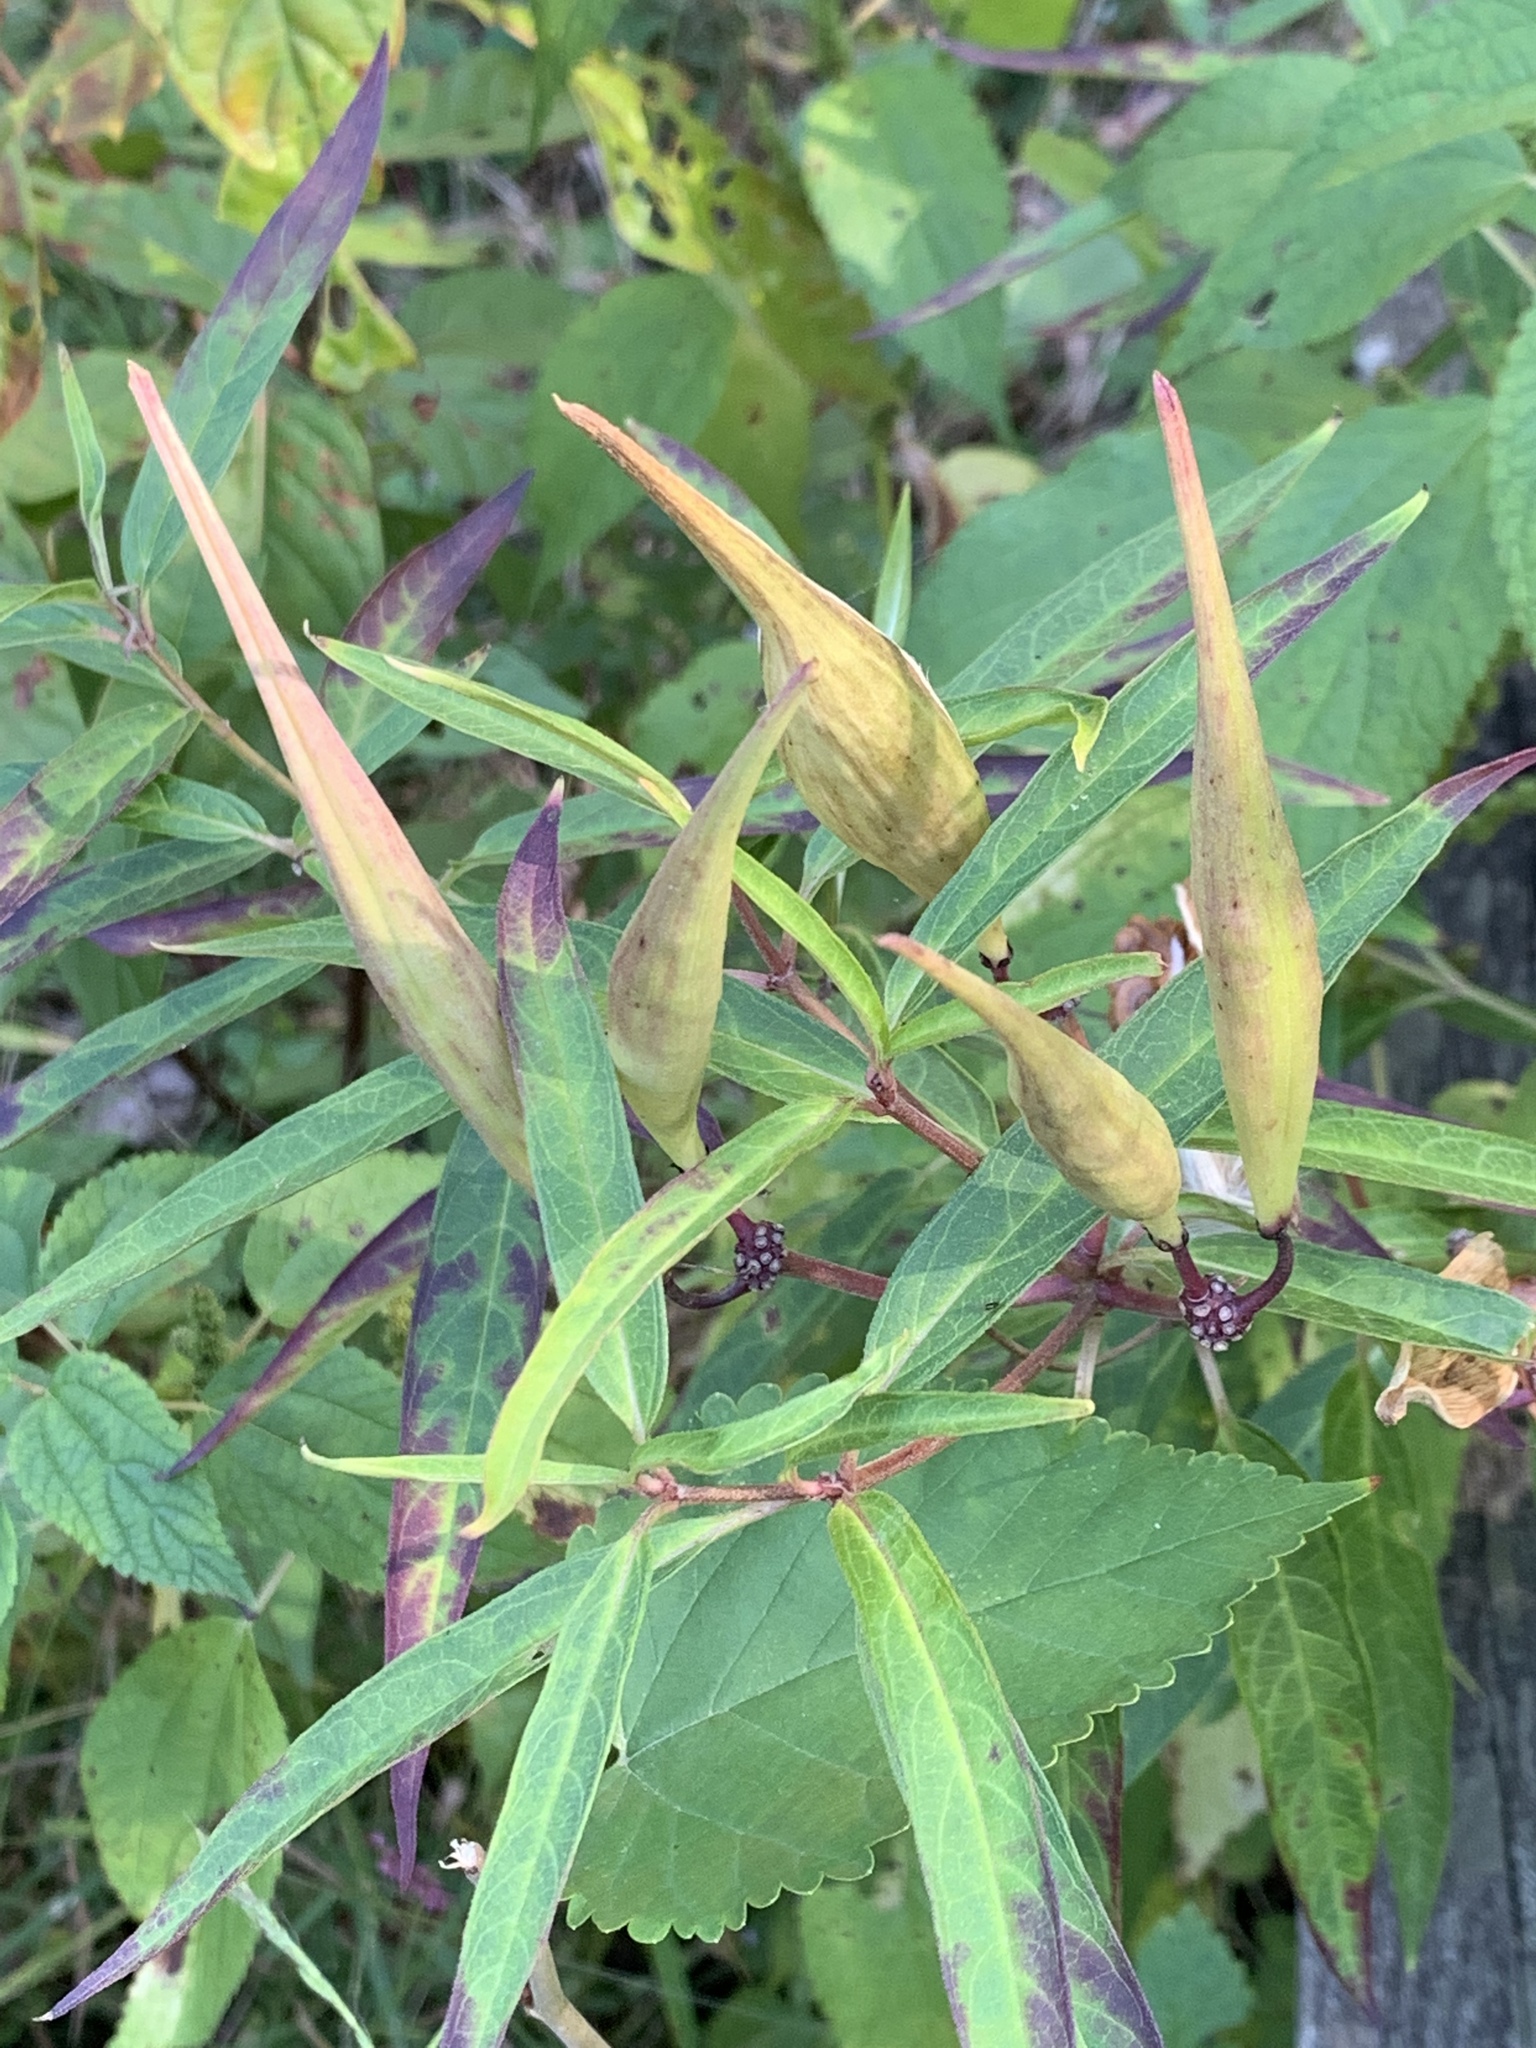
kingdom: Plantae
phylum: Tracheophyta
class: Magnoliopsida
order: Gentianales
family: Apocynaceae
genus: Asclepias
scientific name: Asclepias incarnata
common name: Swamp milkweed
